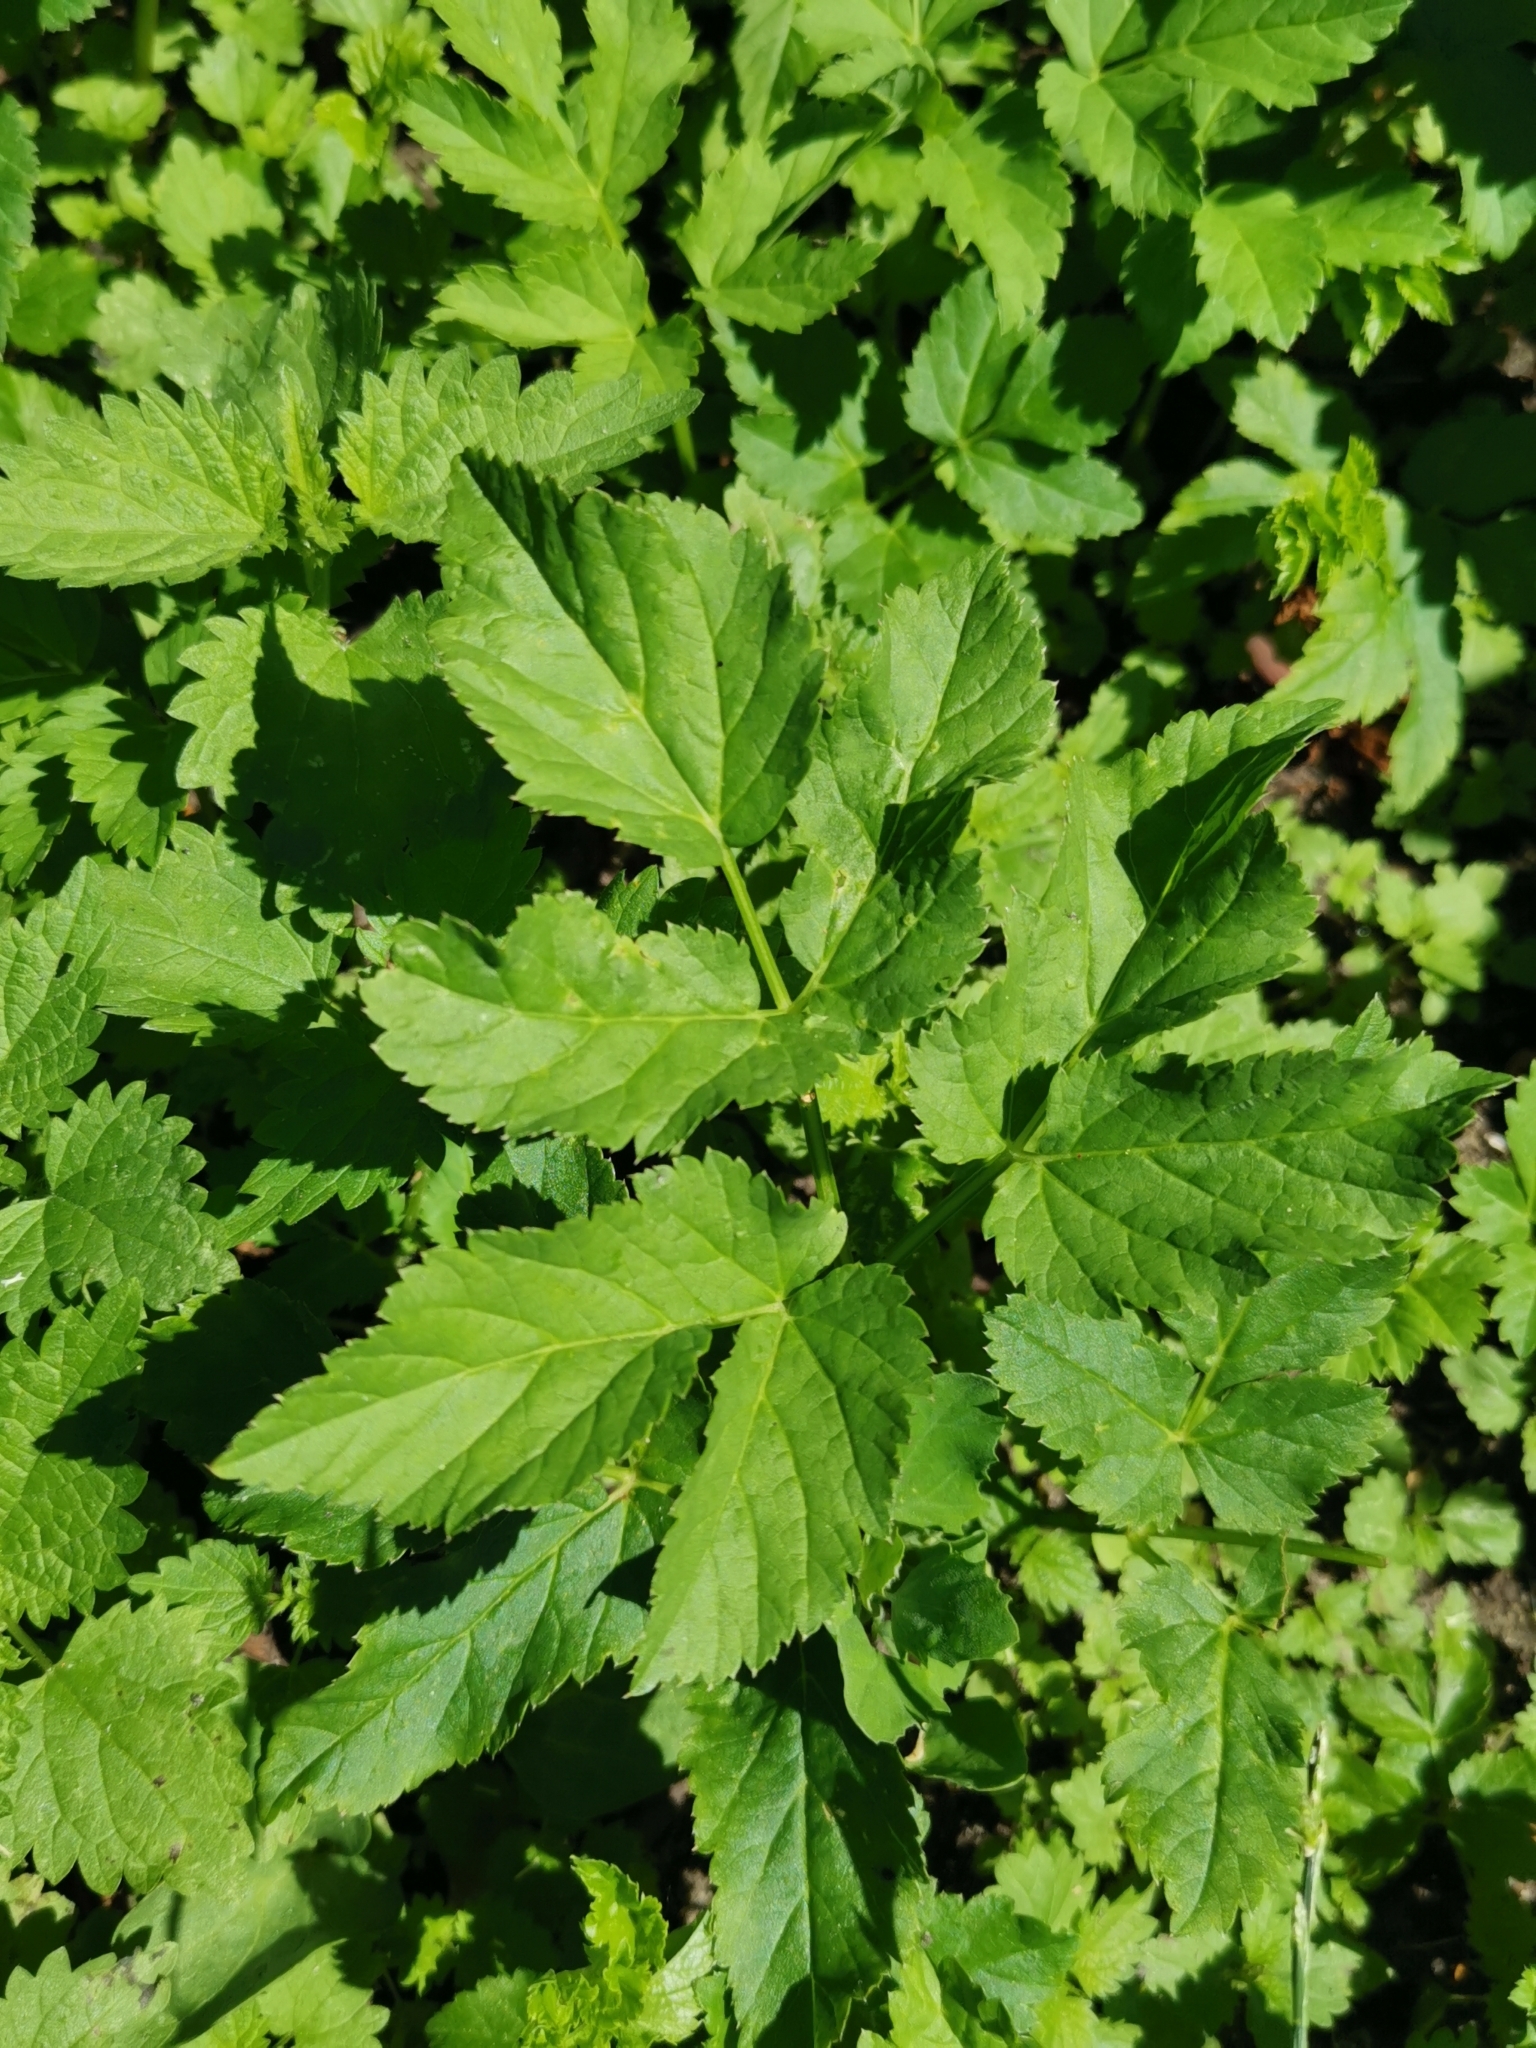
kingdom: Plantae
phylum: Tracheophyta
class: Magnoliopsida
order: Apiales
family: Apiaceae
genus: Aegopodium
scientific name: Aegopodium podagraria
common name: Ground-elder
